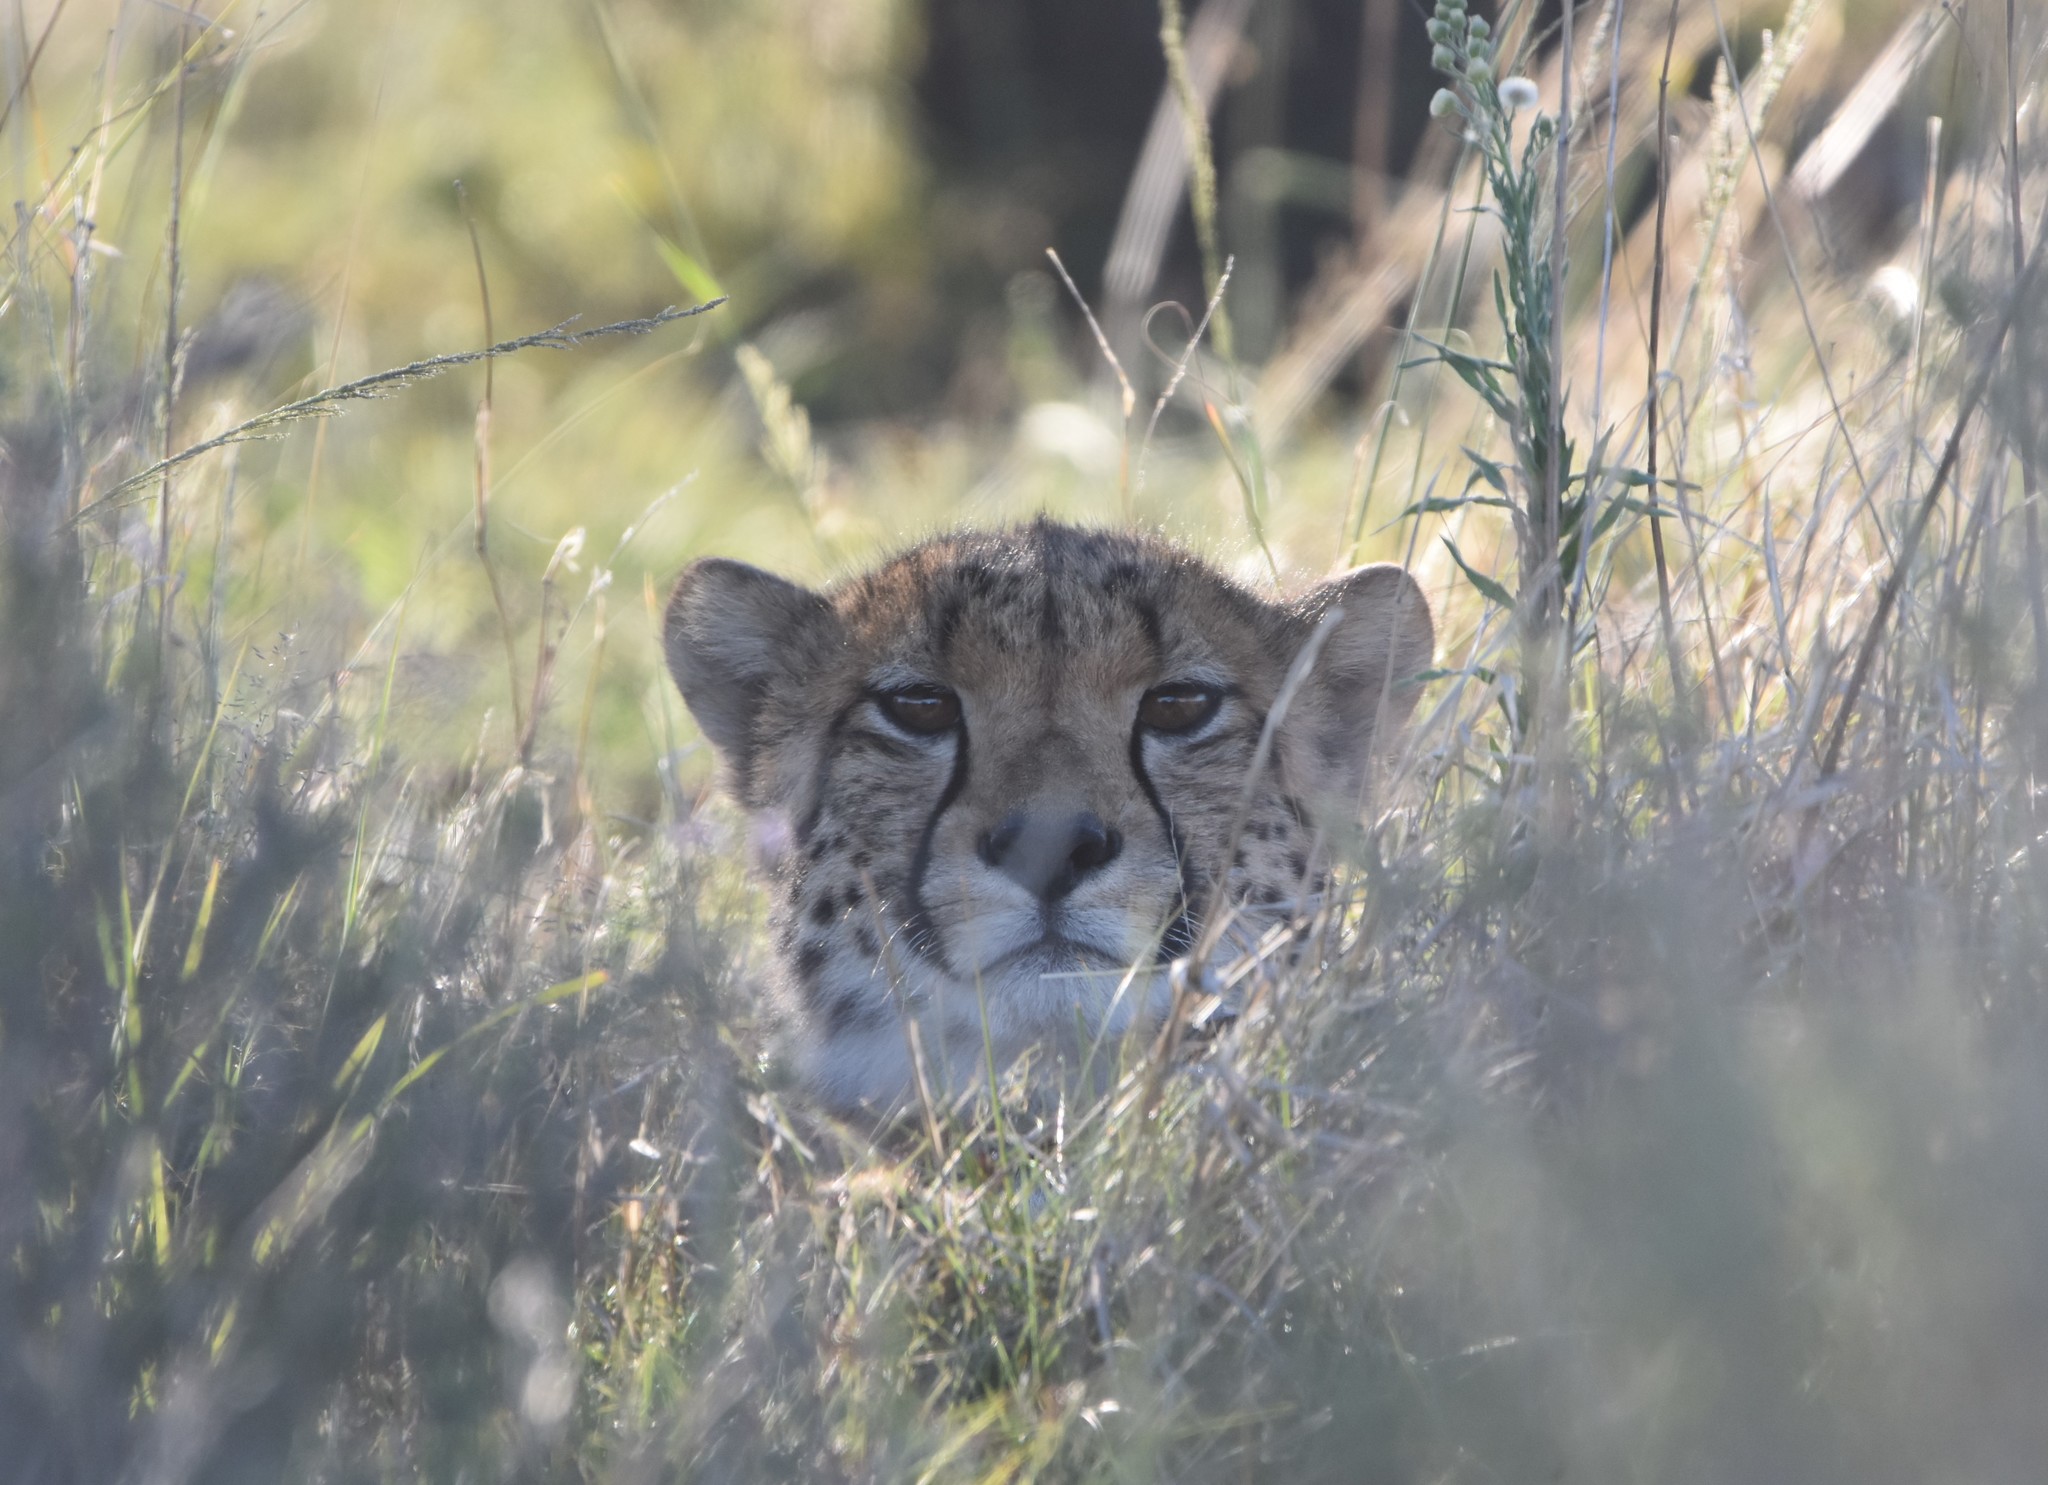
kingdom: Animalia
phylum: Chordata
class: Mammalia
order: Carnivora
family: Felidae
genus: Acinonyx
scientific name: Acinonyx jubatus
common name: Cheetah
